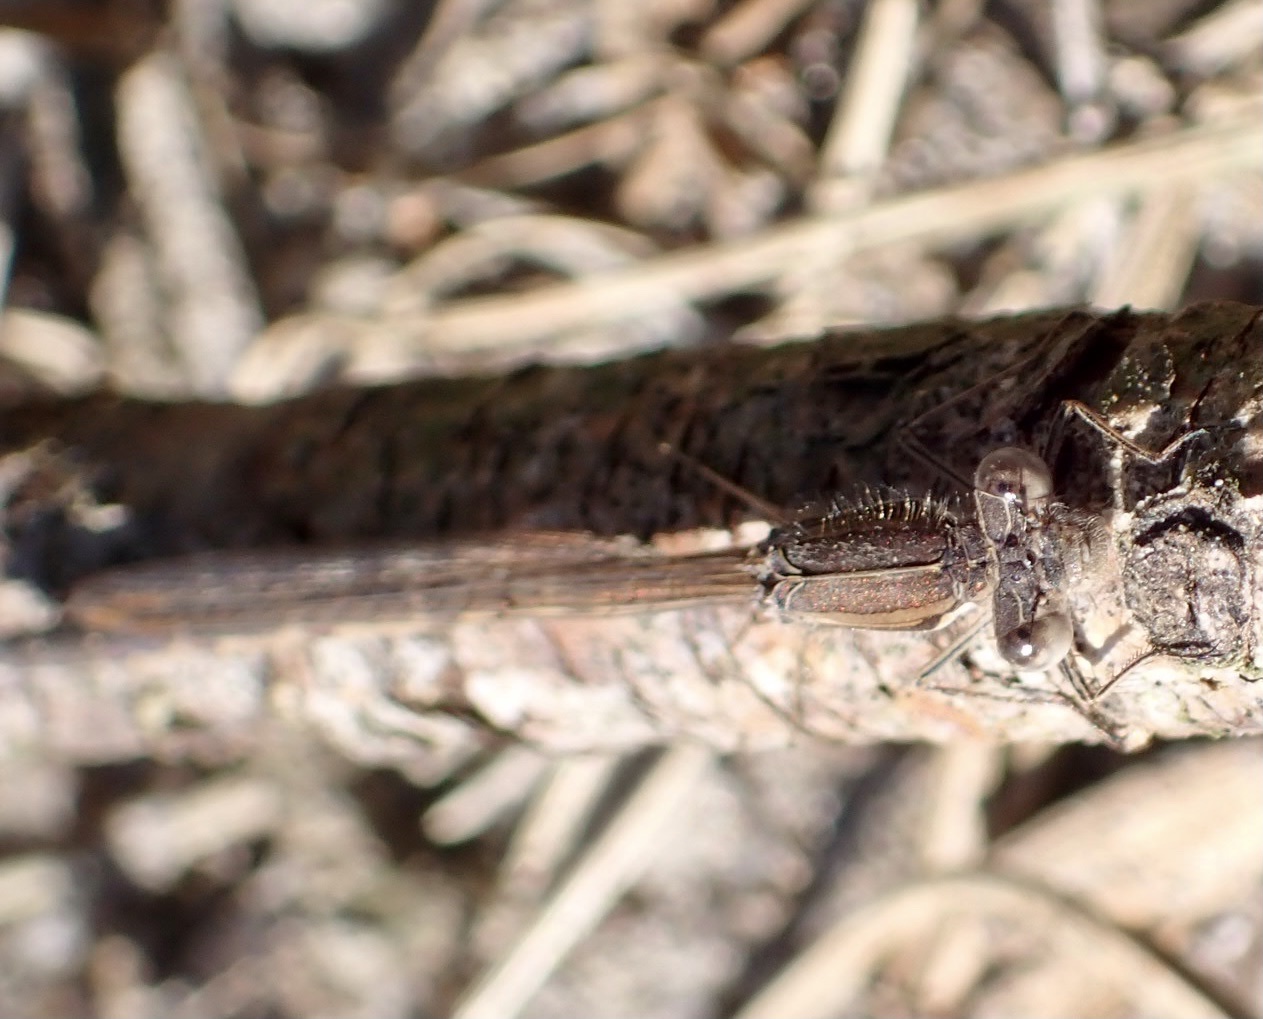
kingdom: Animalia
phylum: Arthropoda
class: Insecta
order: Odonata
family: Lestidae
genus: Sympecma
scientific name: Sympecma fusca
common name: Common winter damsel
